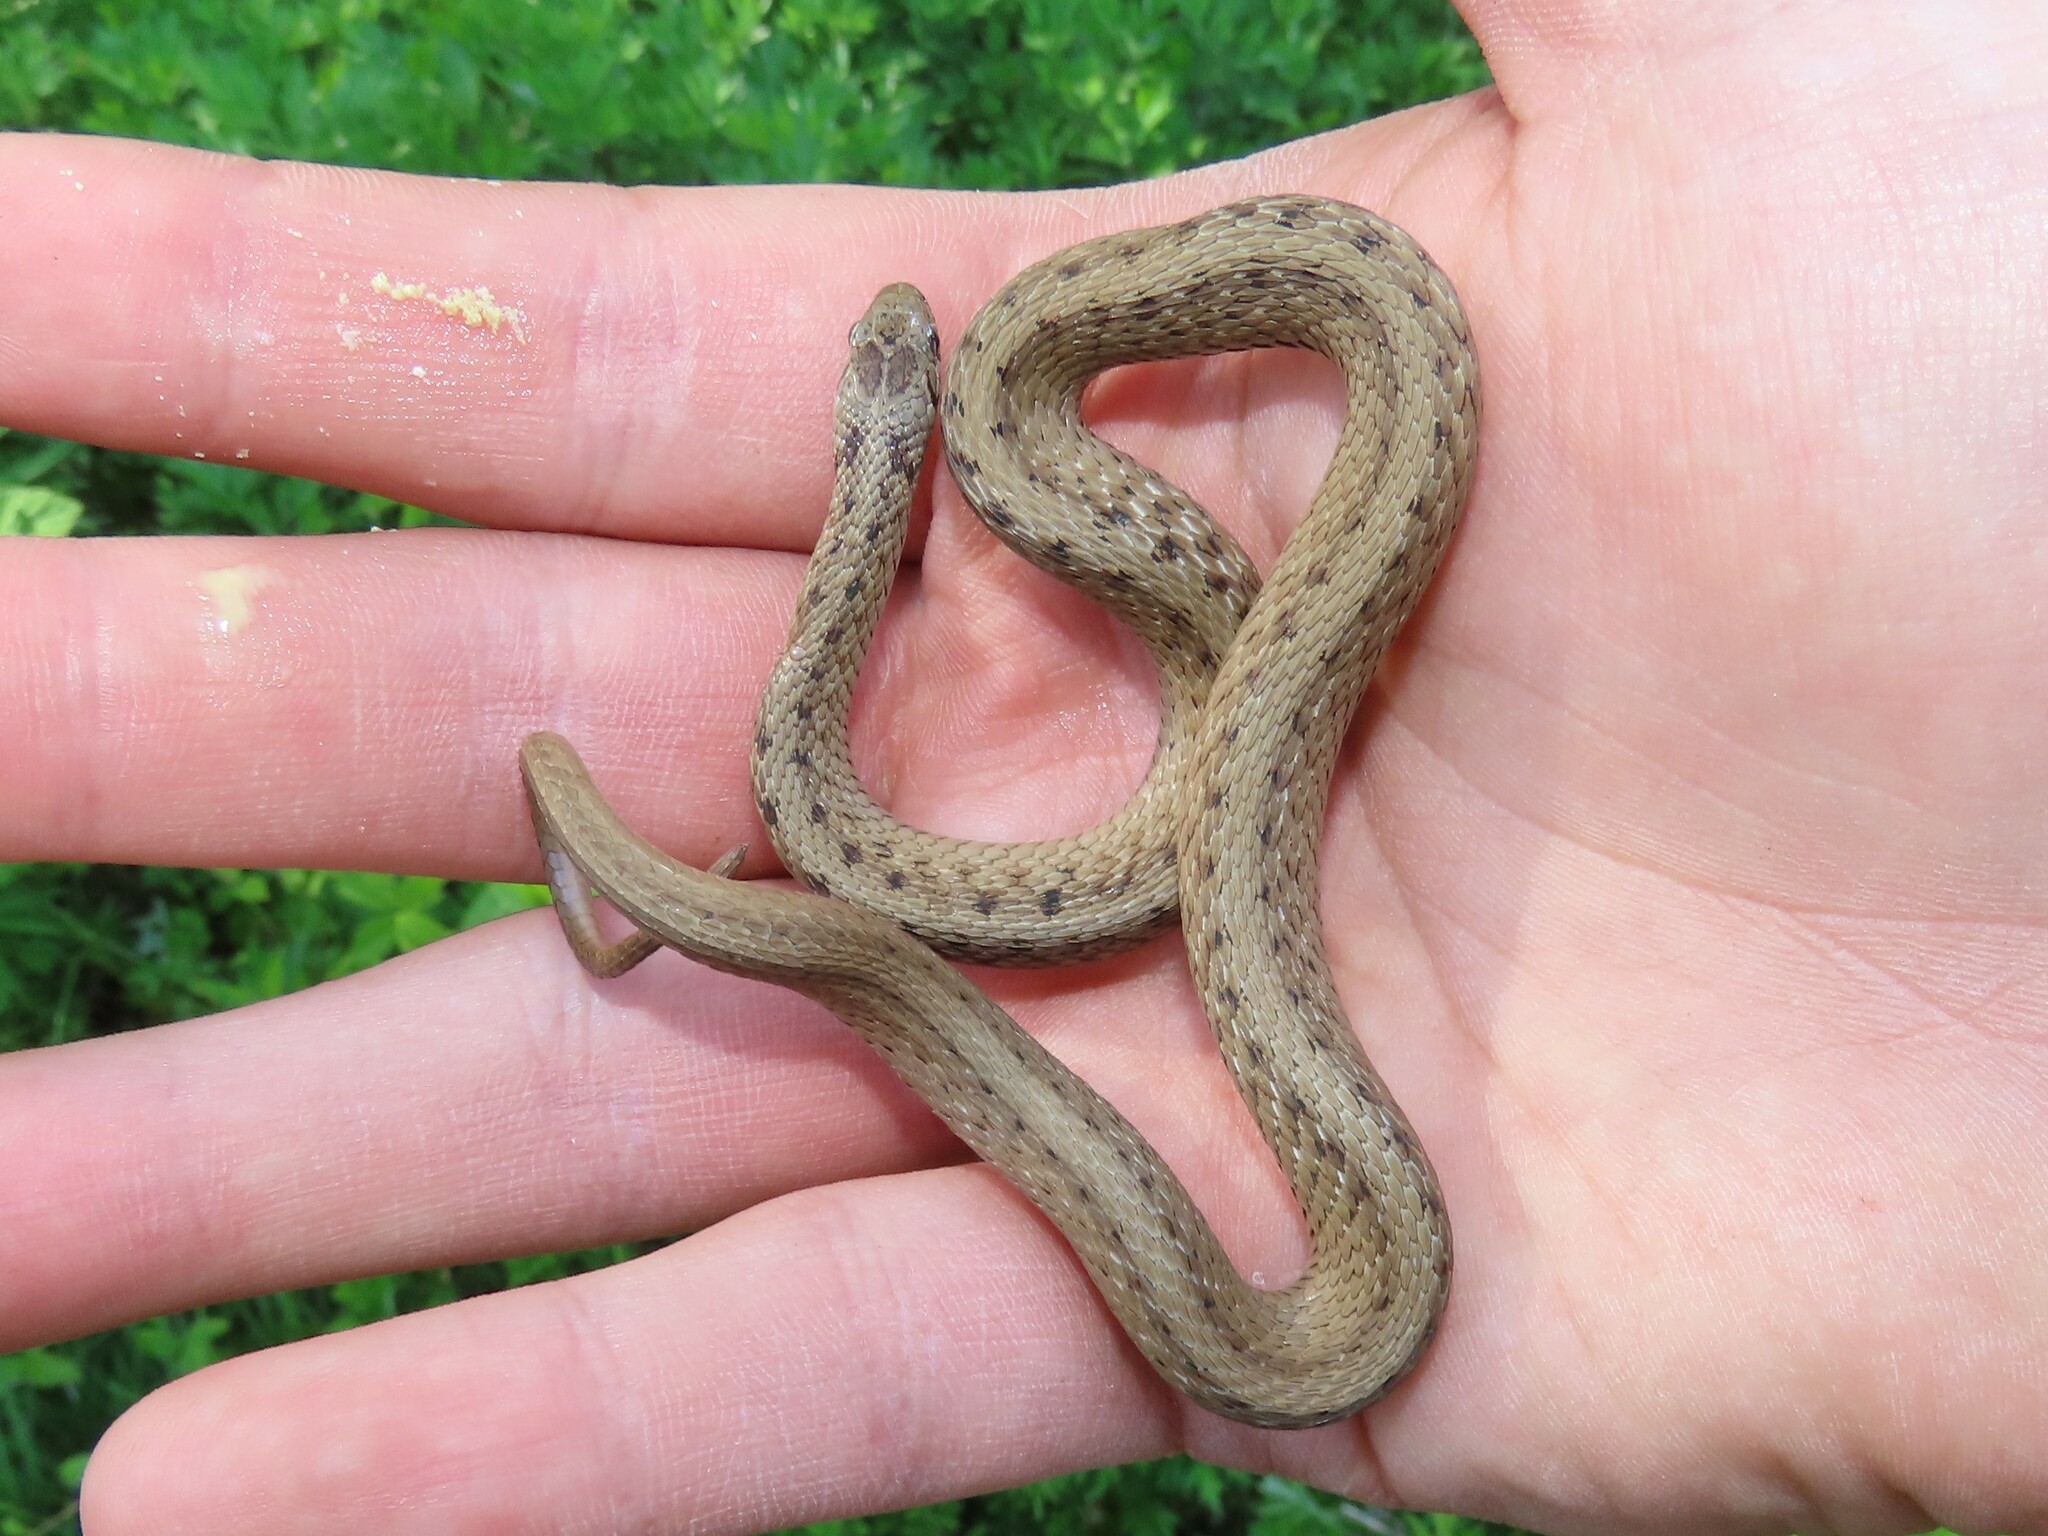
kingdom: Animalia
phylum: Chordata
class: Squamata
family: Colubridae
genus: Storeria
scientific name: Storeria dekayi
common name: (dekay’s) brown snake
